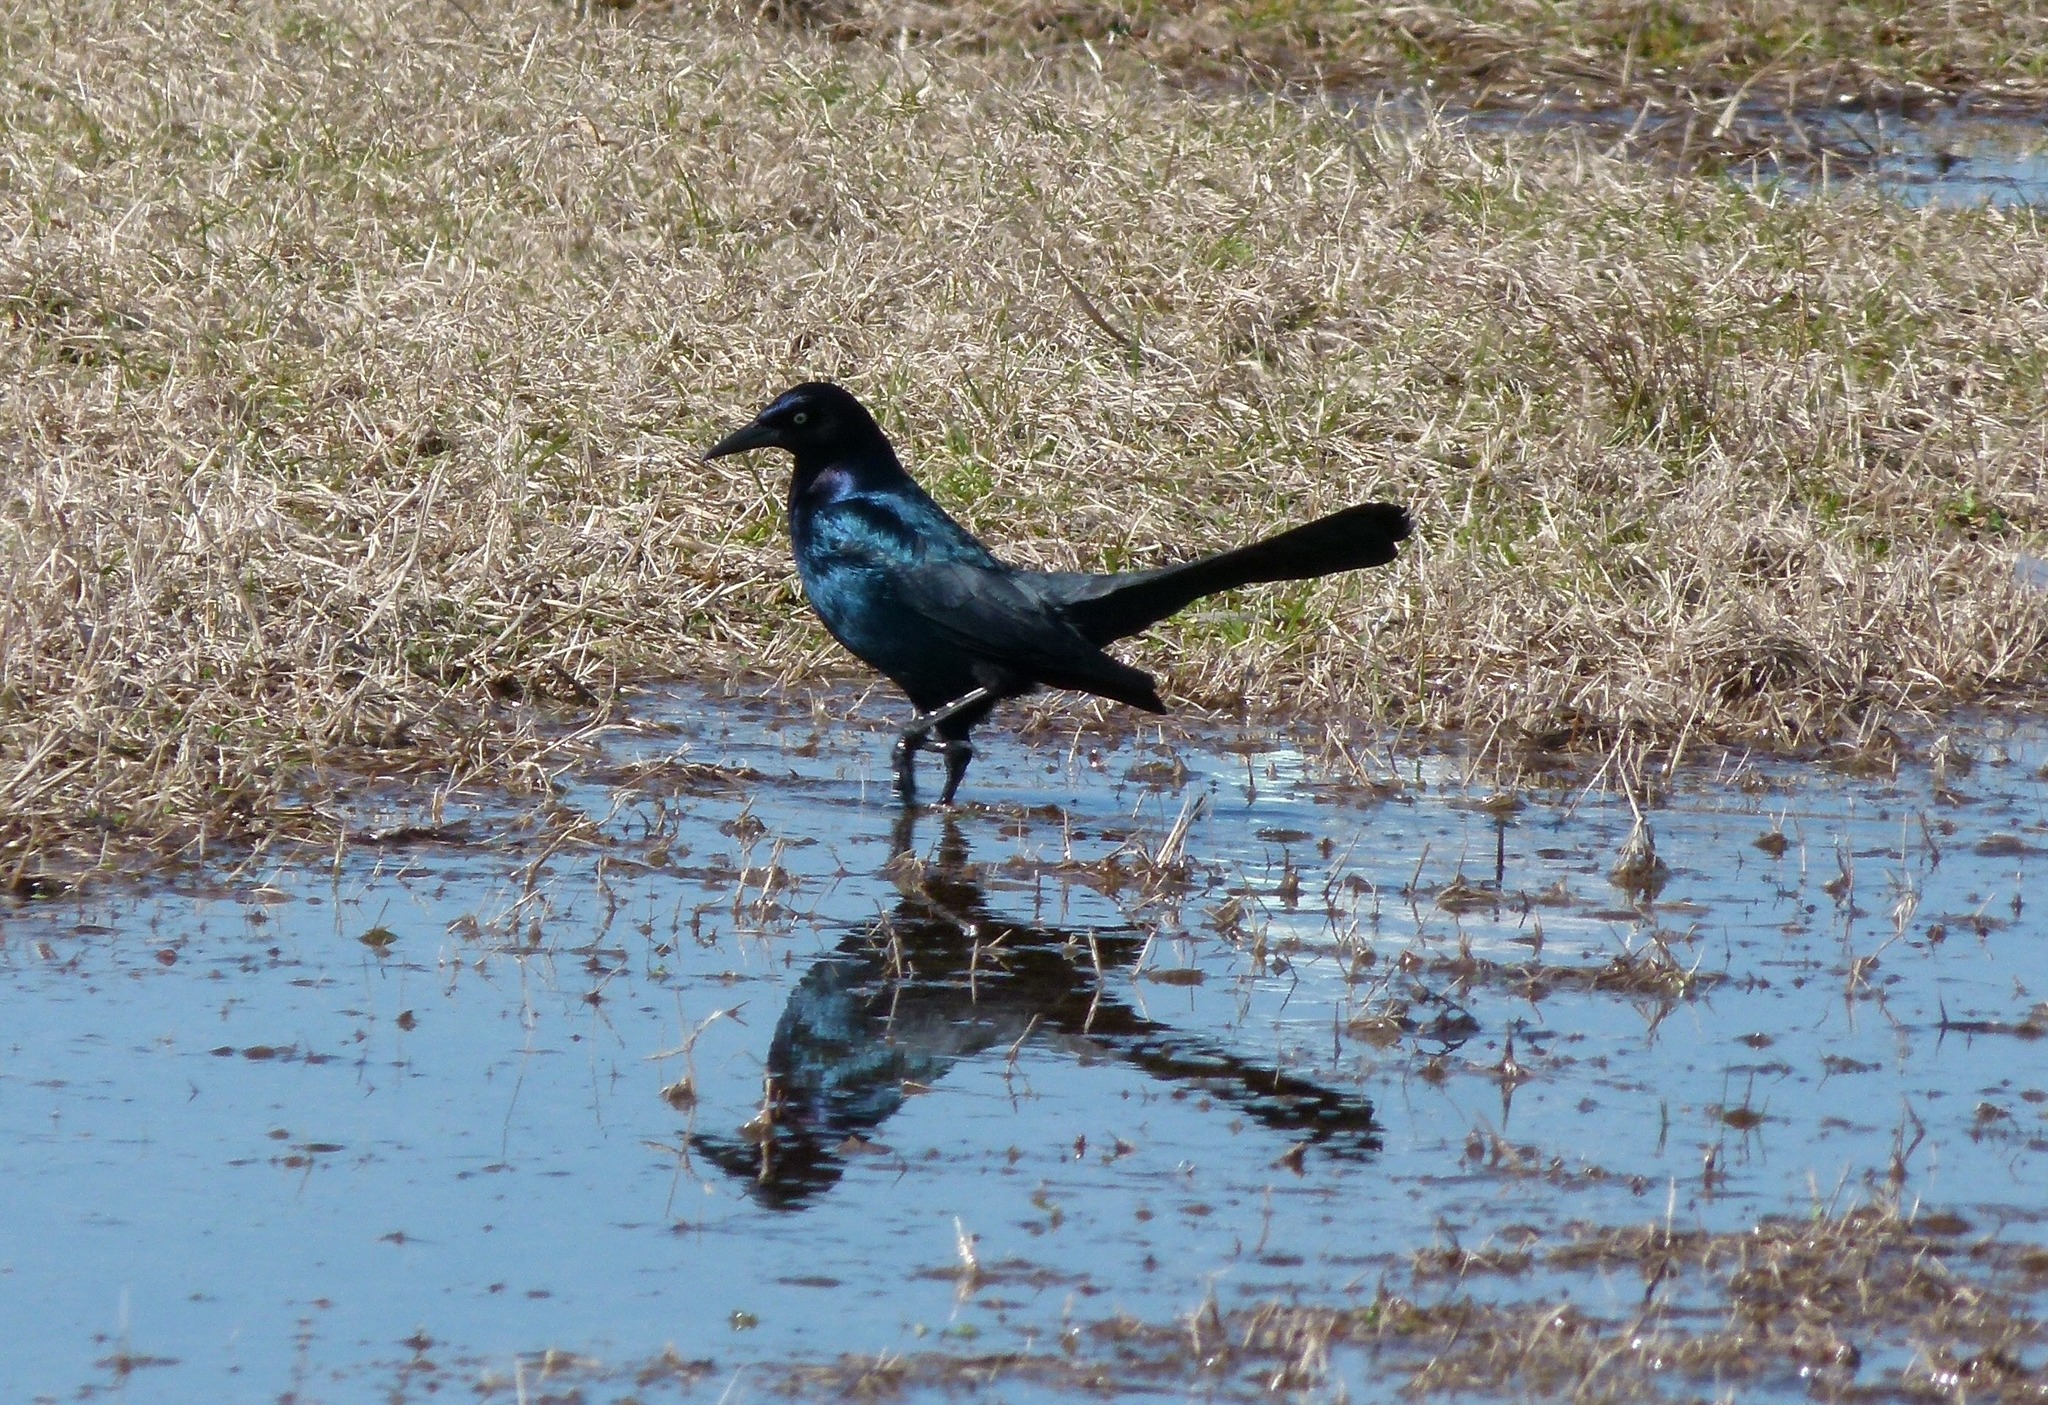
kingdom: Animalia
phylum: Chordata
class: Aves
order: Passeriformes
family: Icteridae
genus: Quiscalus
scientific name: Quiscalus major
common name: Boat-tailed grackle
